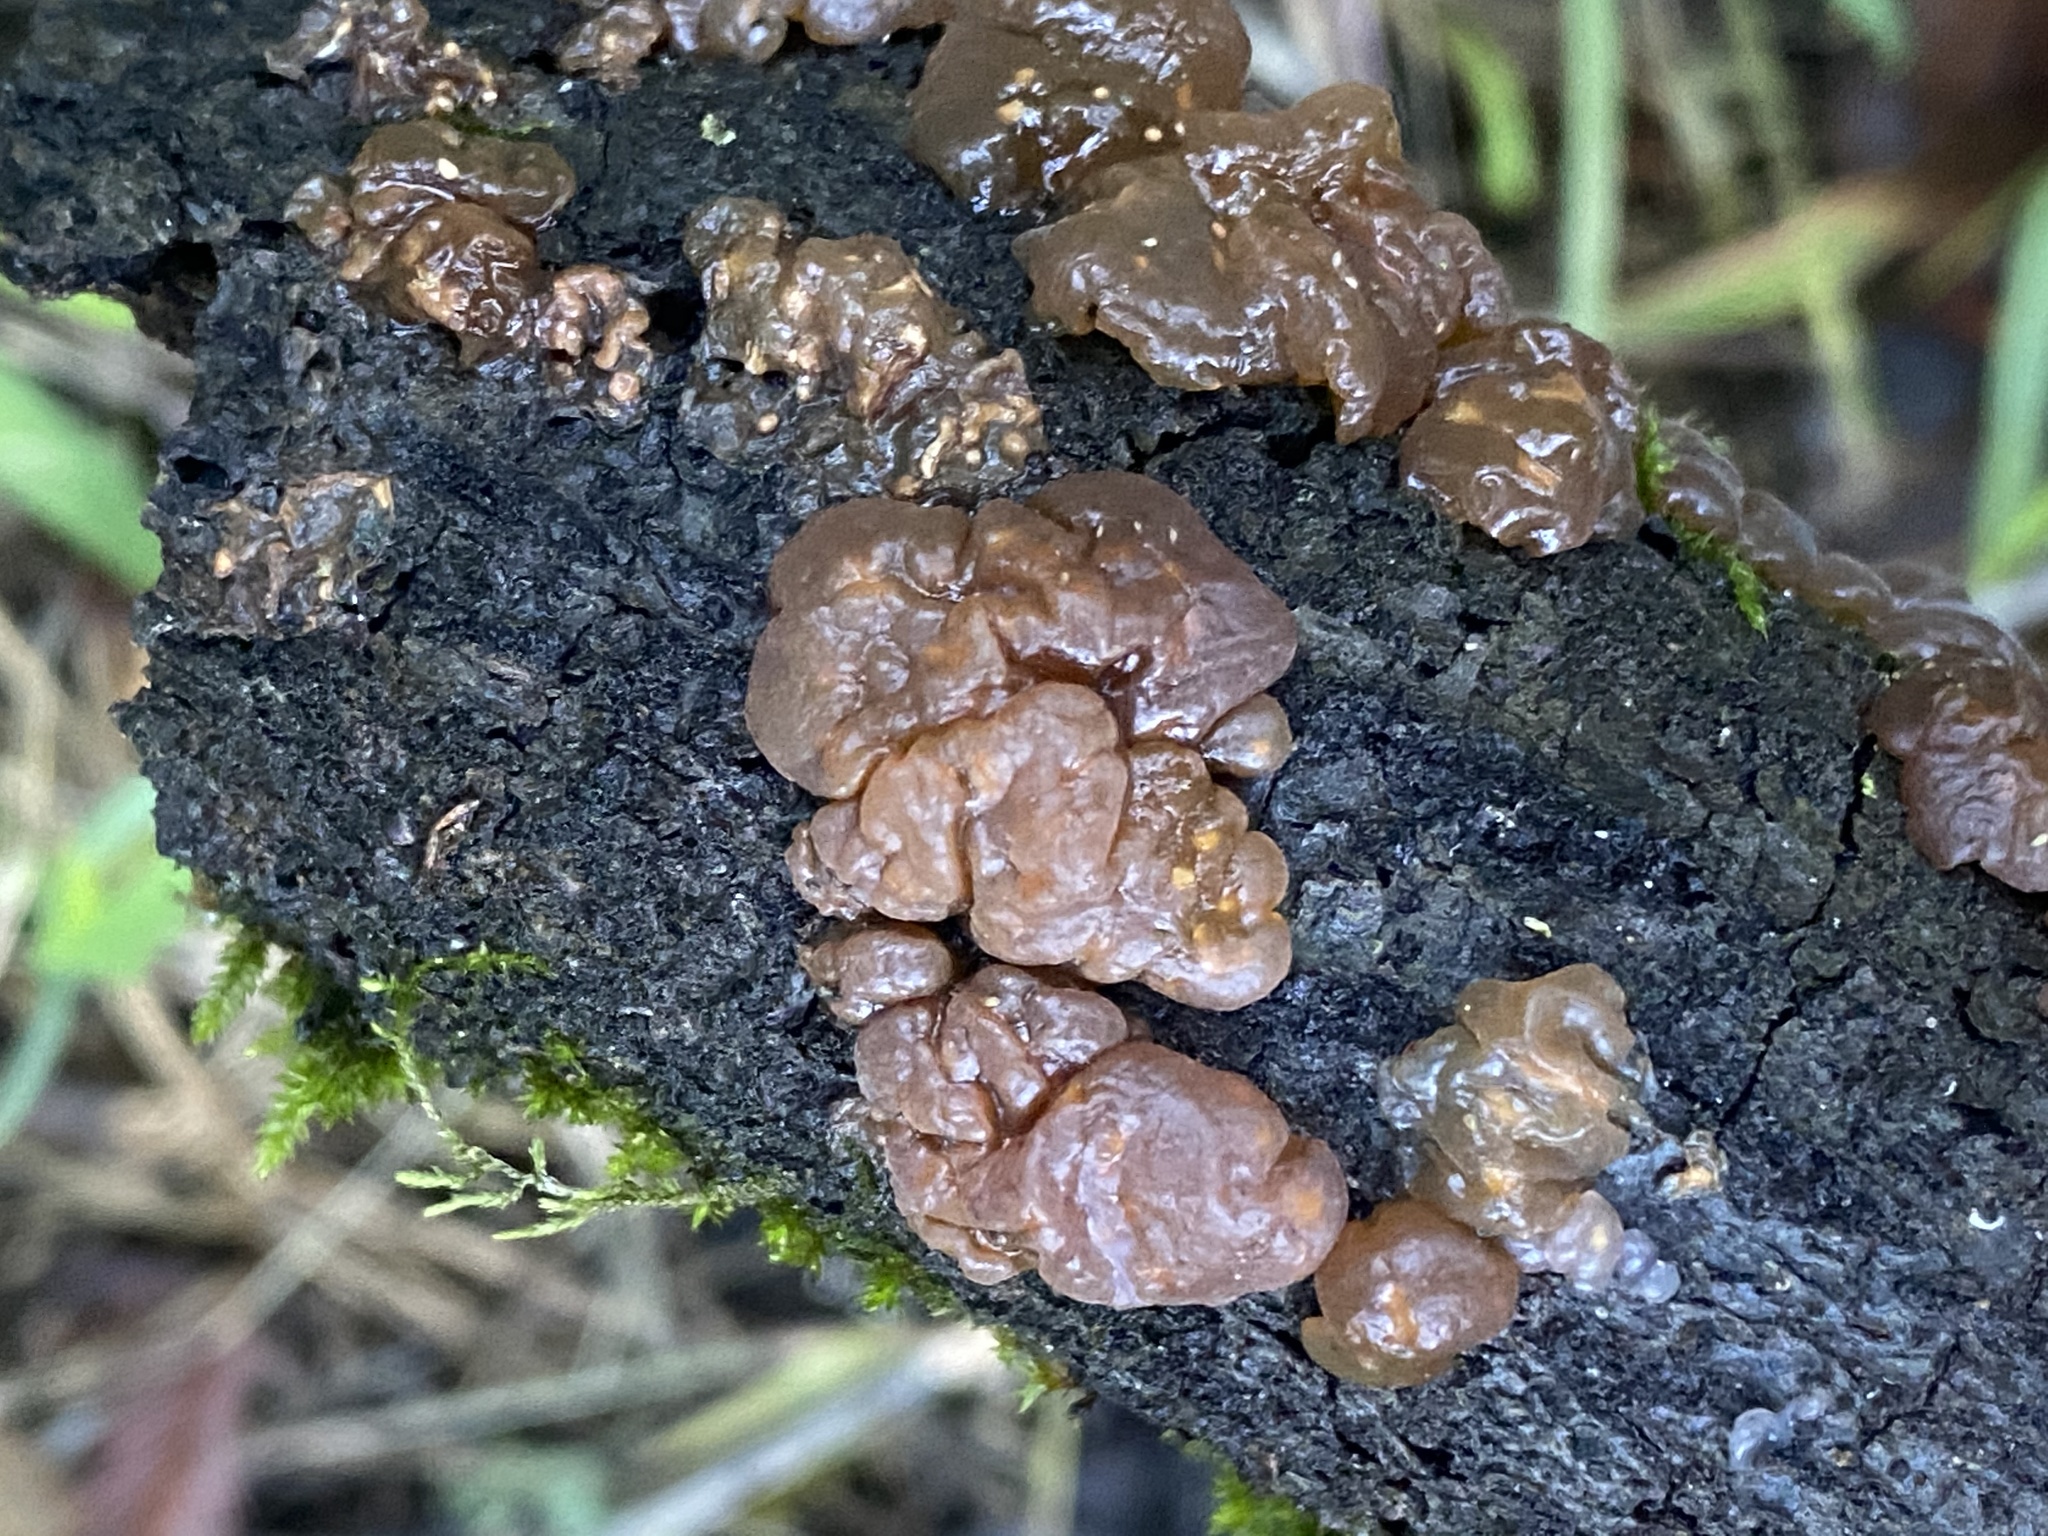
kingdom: Fungi
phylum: Basidiomycota
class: Agaricomycetes
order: Auriculariales
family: Hyaloriaceae
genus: Myxarium
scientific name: Myxarium nucleatum
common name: Crystal brain fungus
